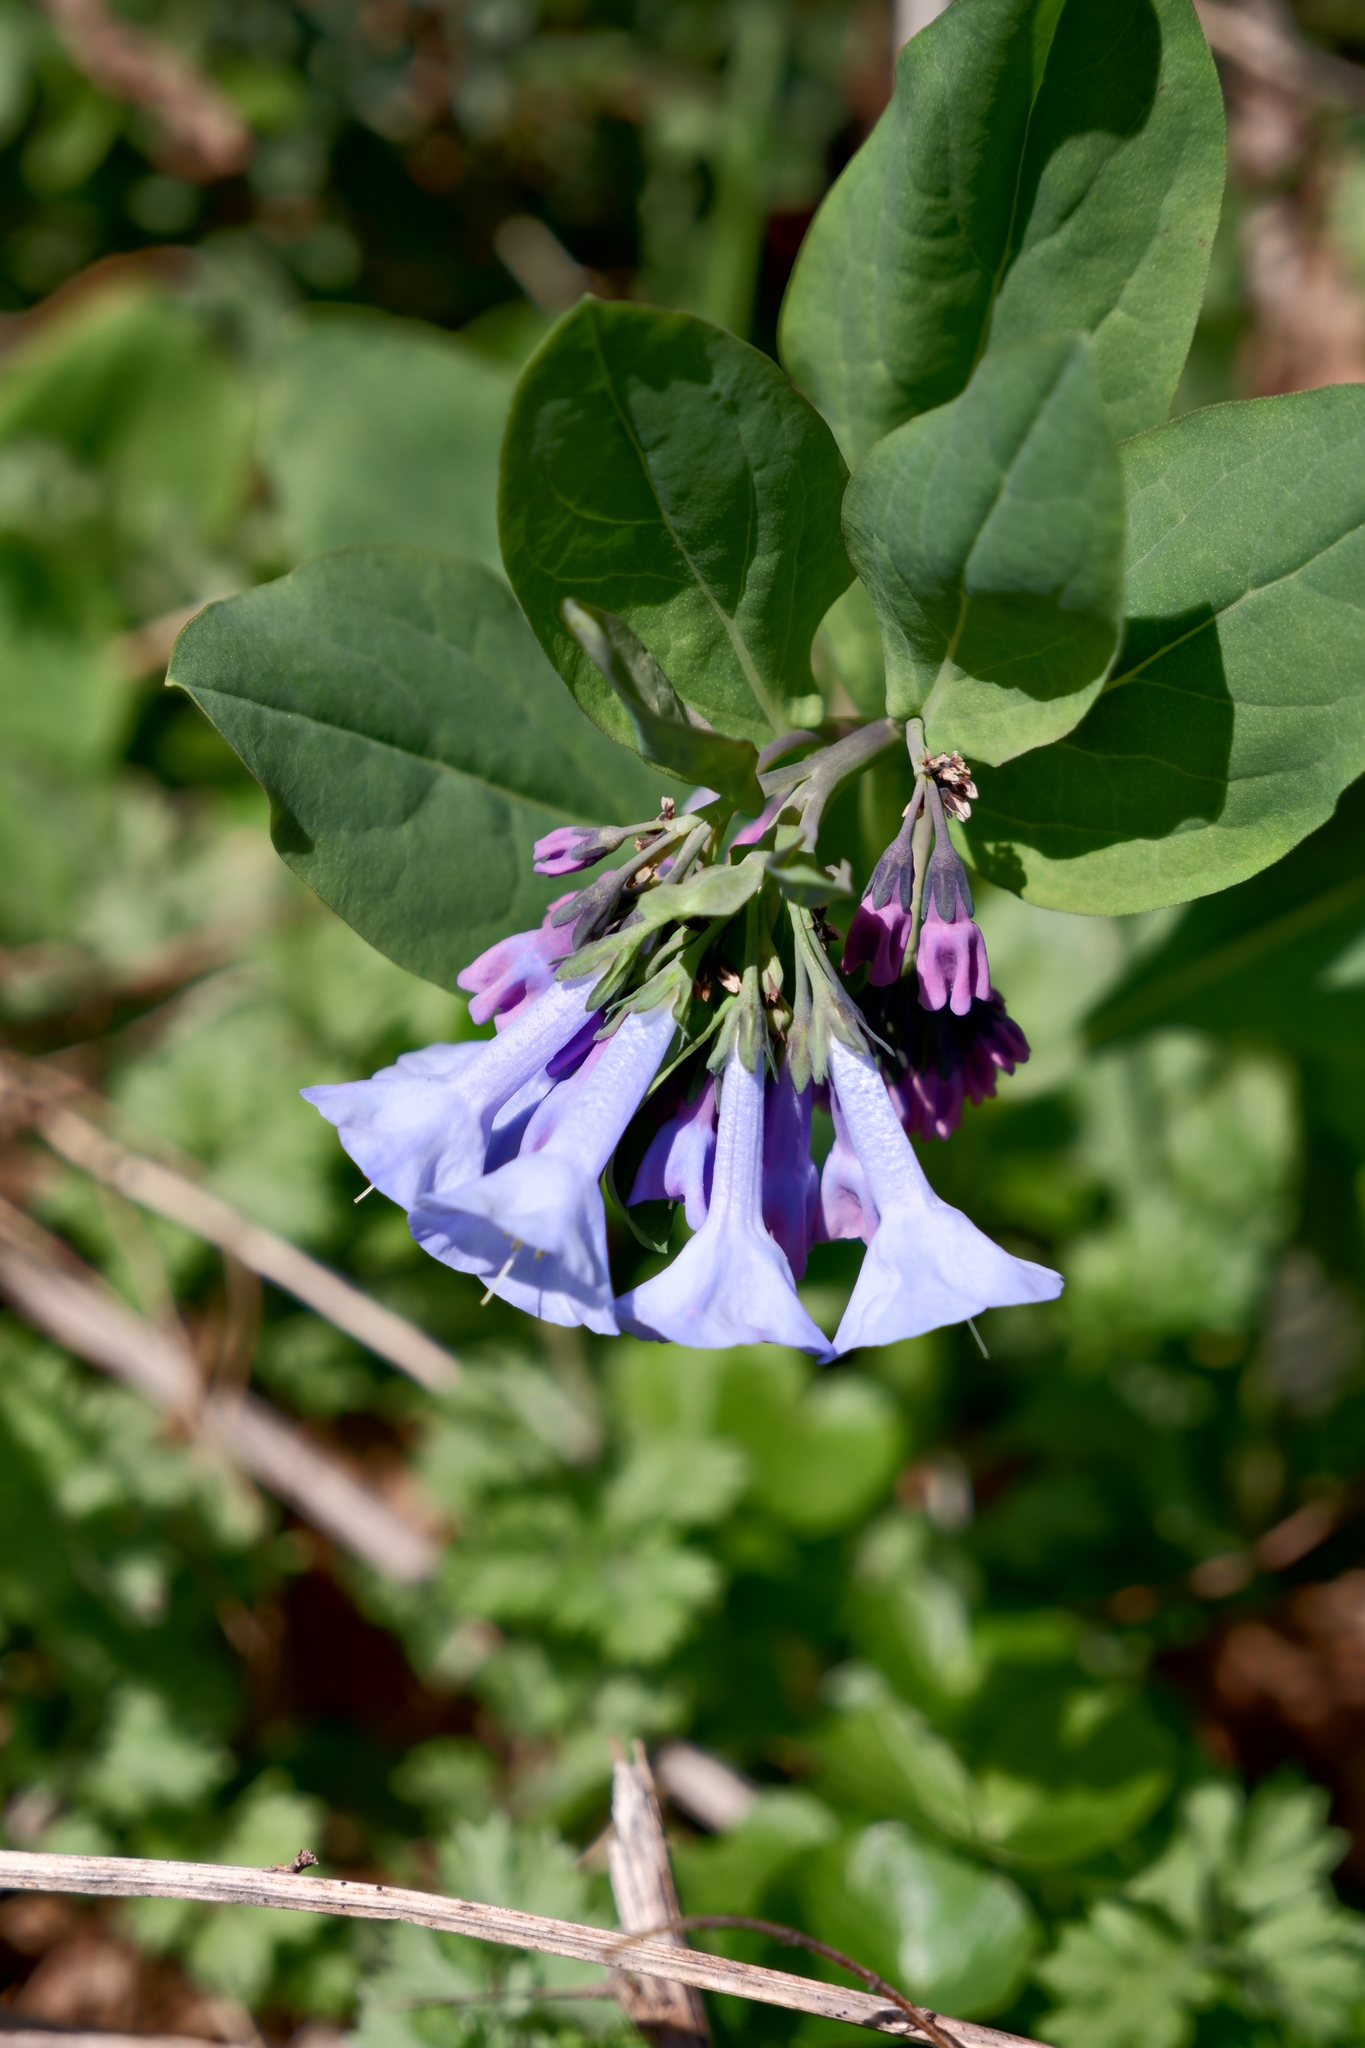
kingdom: Plantae
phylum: Tracheophyta
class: Magnoliopsida
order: Boraginales
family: Boraginaceae
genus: Mertensia
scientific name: Mertensia virginica
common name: Virginia bluebells
